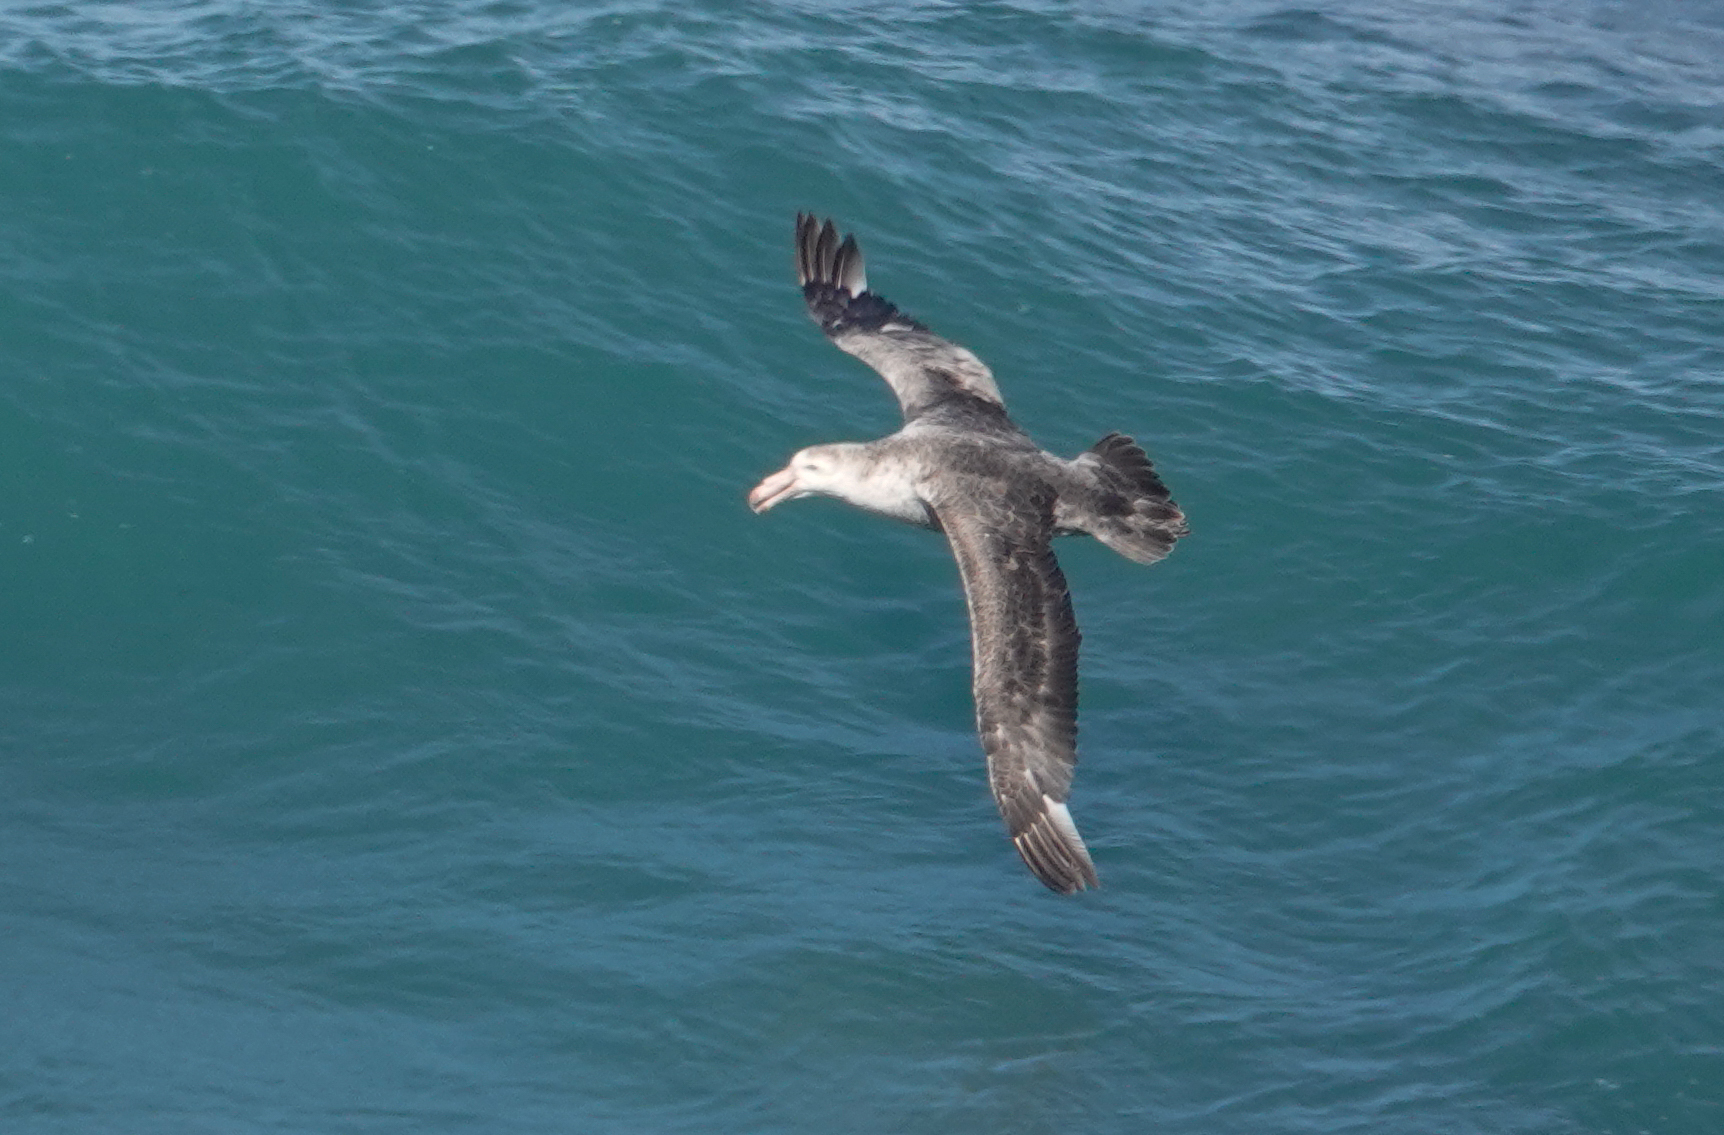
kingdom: Animalia
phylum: Chordata
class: Aves
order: Procellariiformes
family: Procellariidae
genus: Macronectes
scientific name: Macronectes halli
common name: Northern giant petrel
